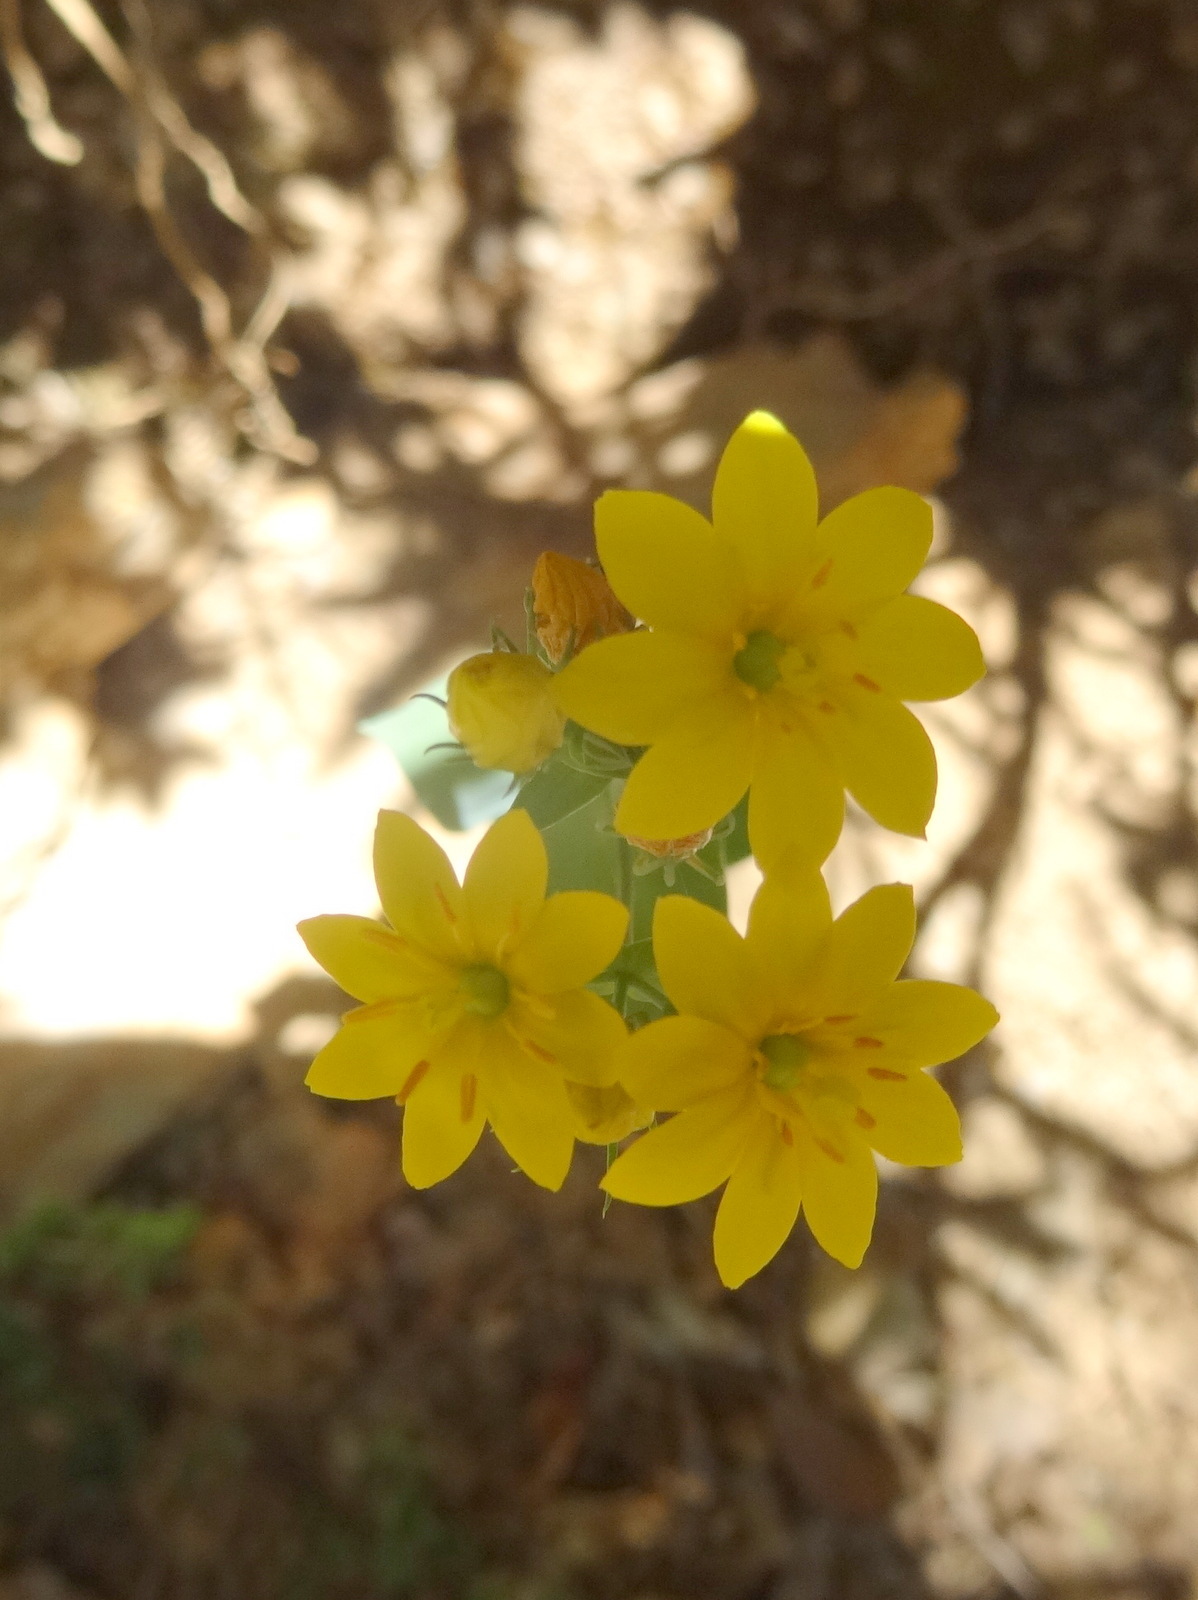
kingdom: Plantae
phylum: Tracheophyta
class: Magnoliopsida
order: Gentianales
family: Gentianaceae
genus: Blackstonia
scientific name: Blackstonia perfoliata
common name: Yellow-wort
